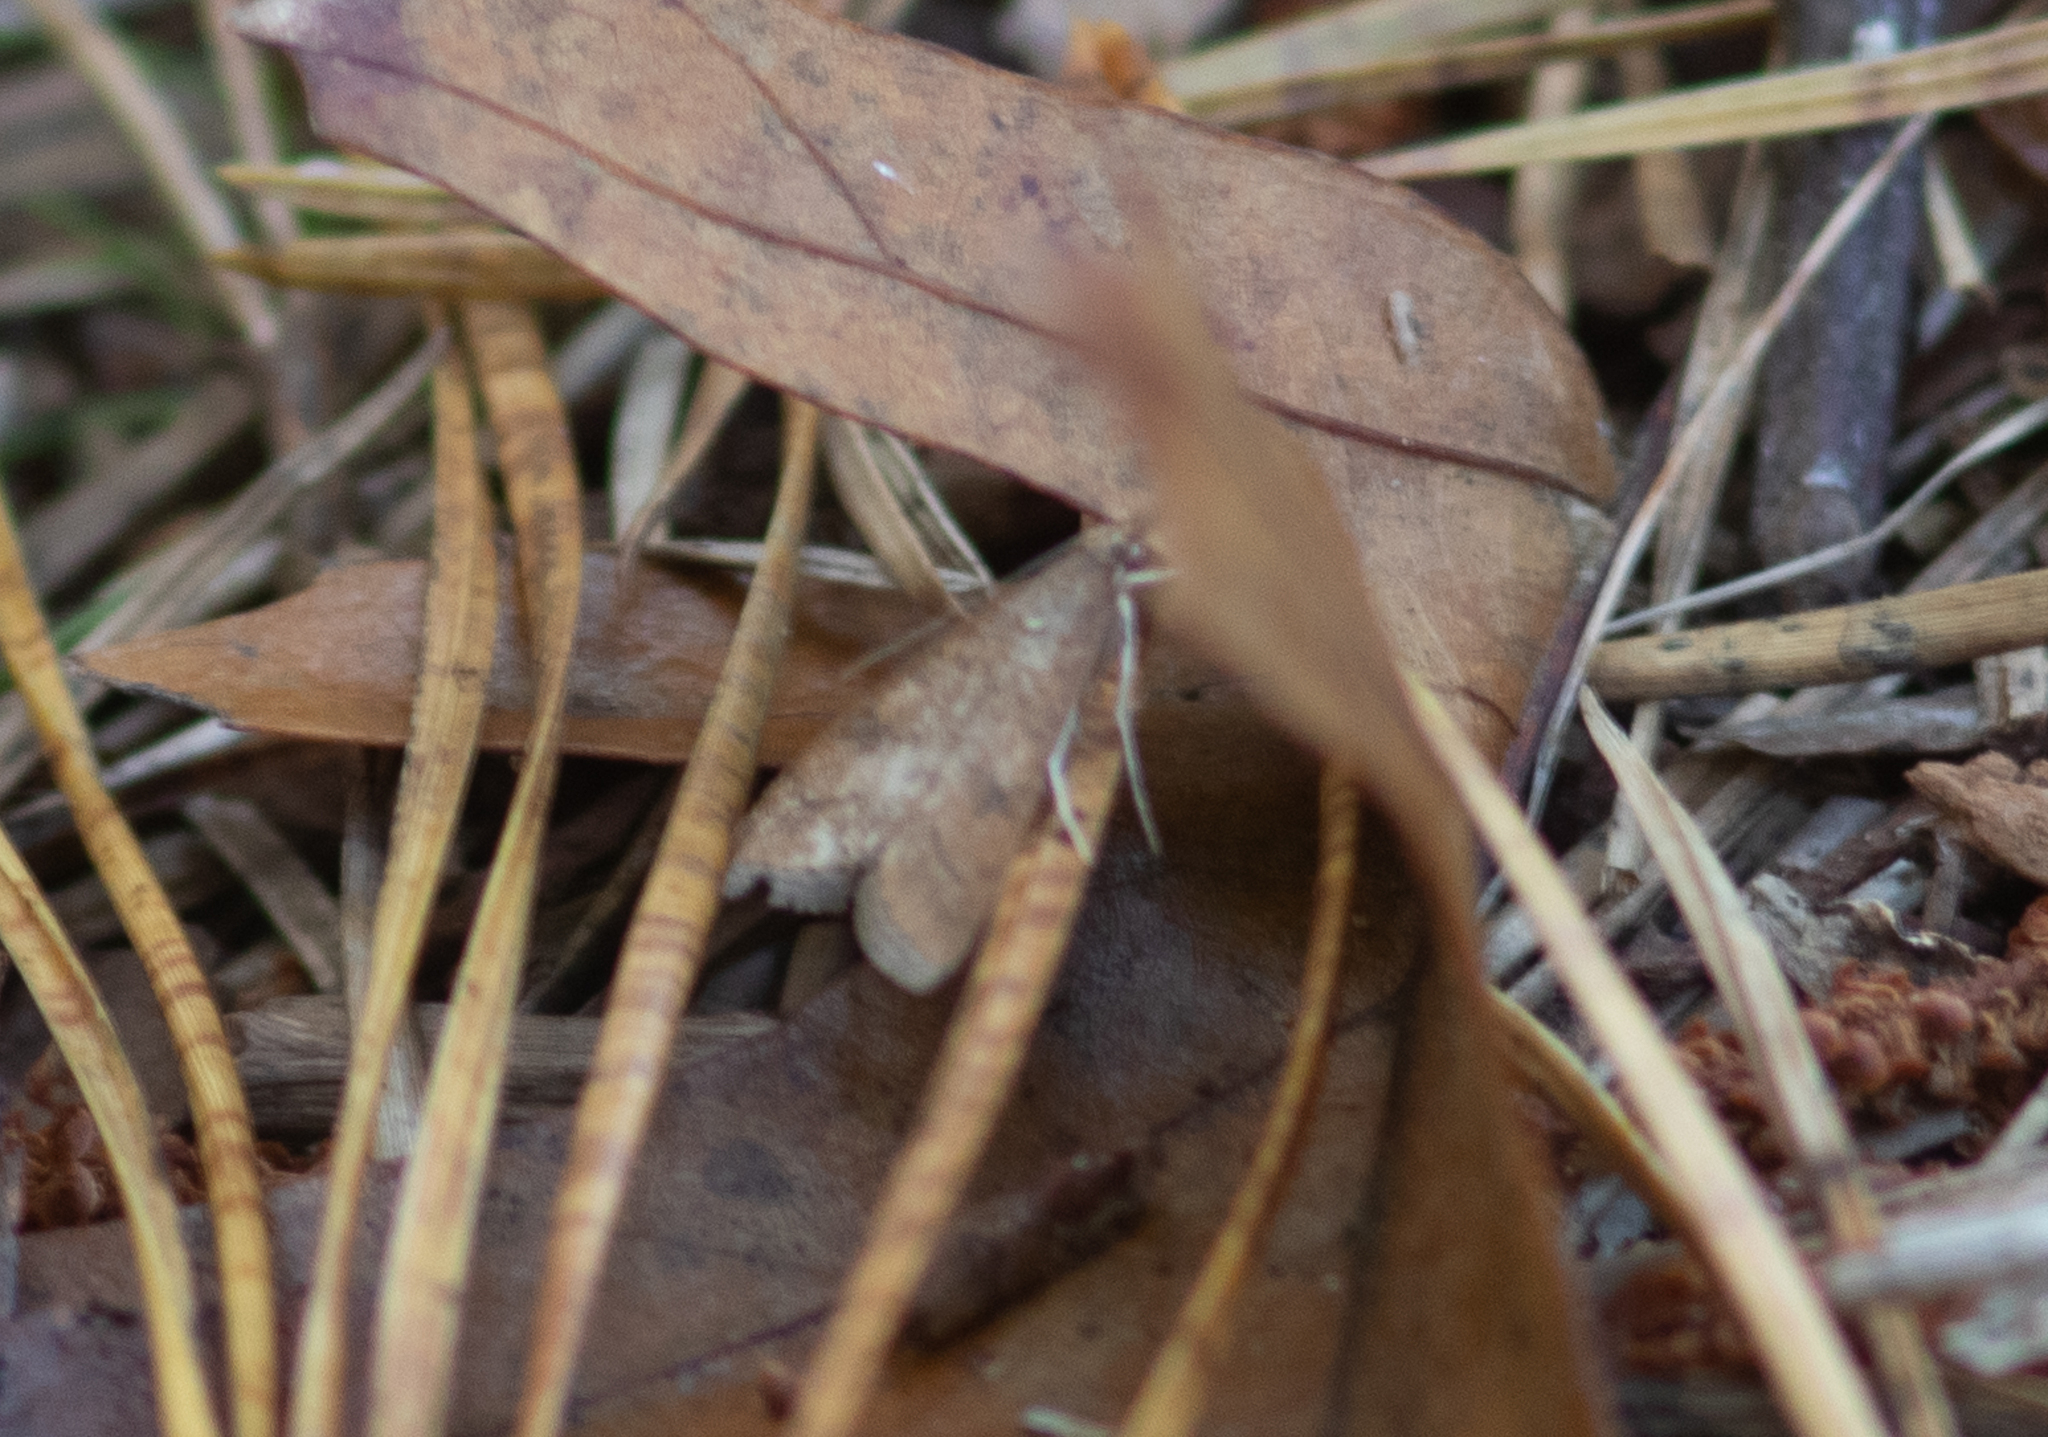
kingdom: Animalia
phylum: Arthropoda
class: Insecta
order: Lepidoptera
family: Crambidae
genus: Udea
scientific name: Udea rubigalis
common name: Celery leaftier moth
